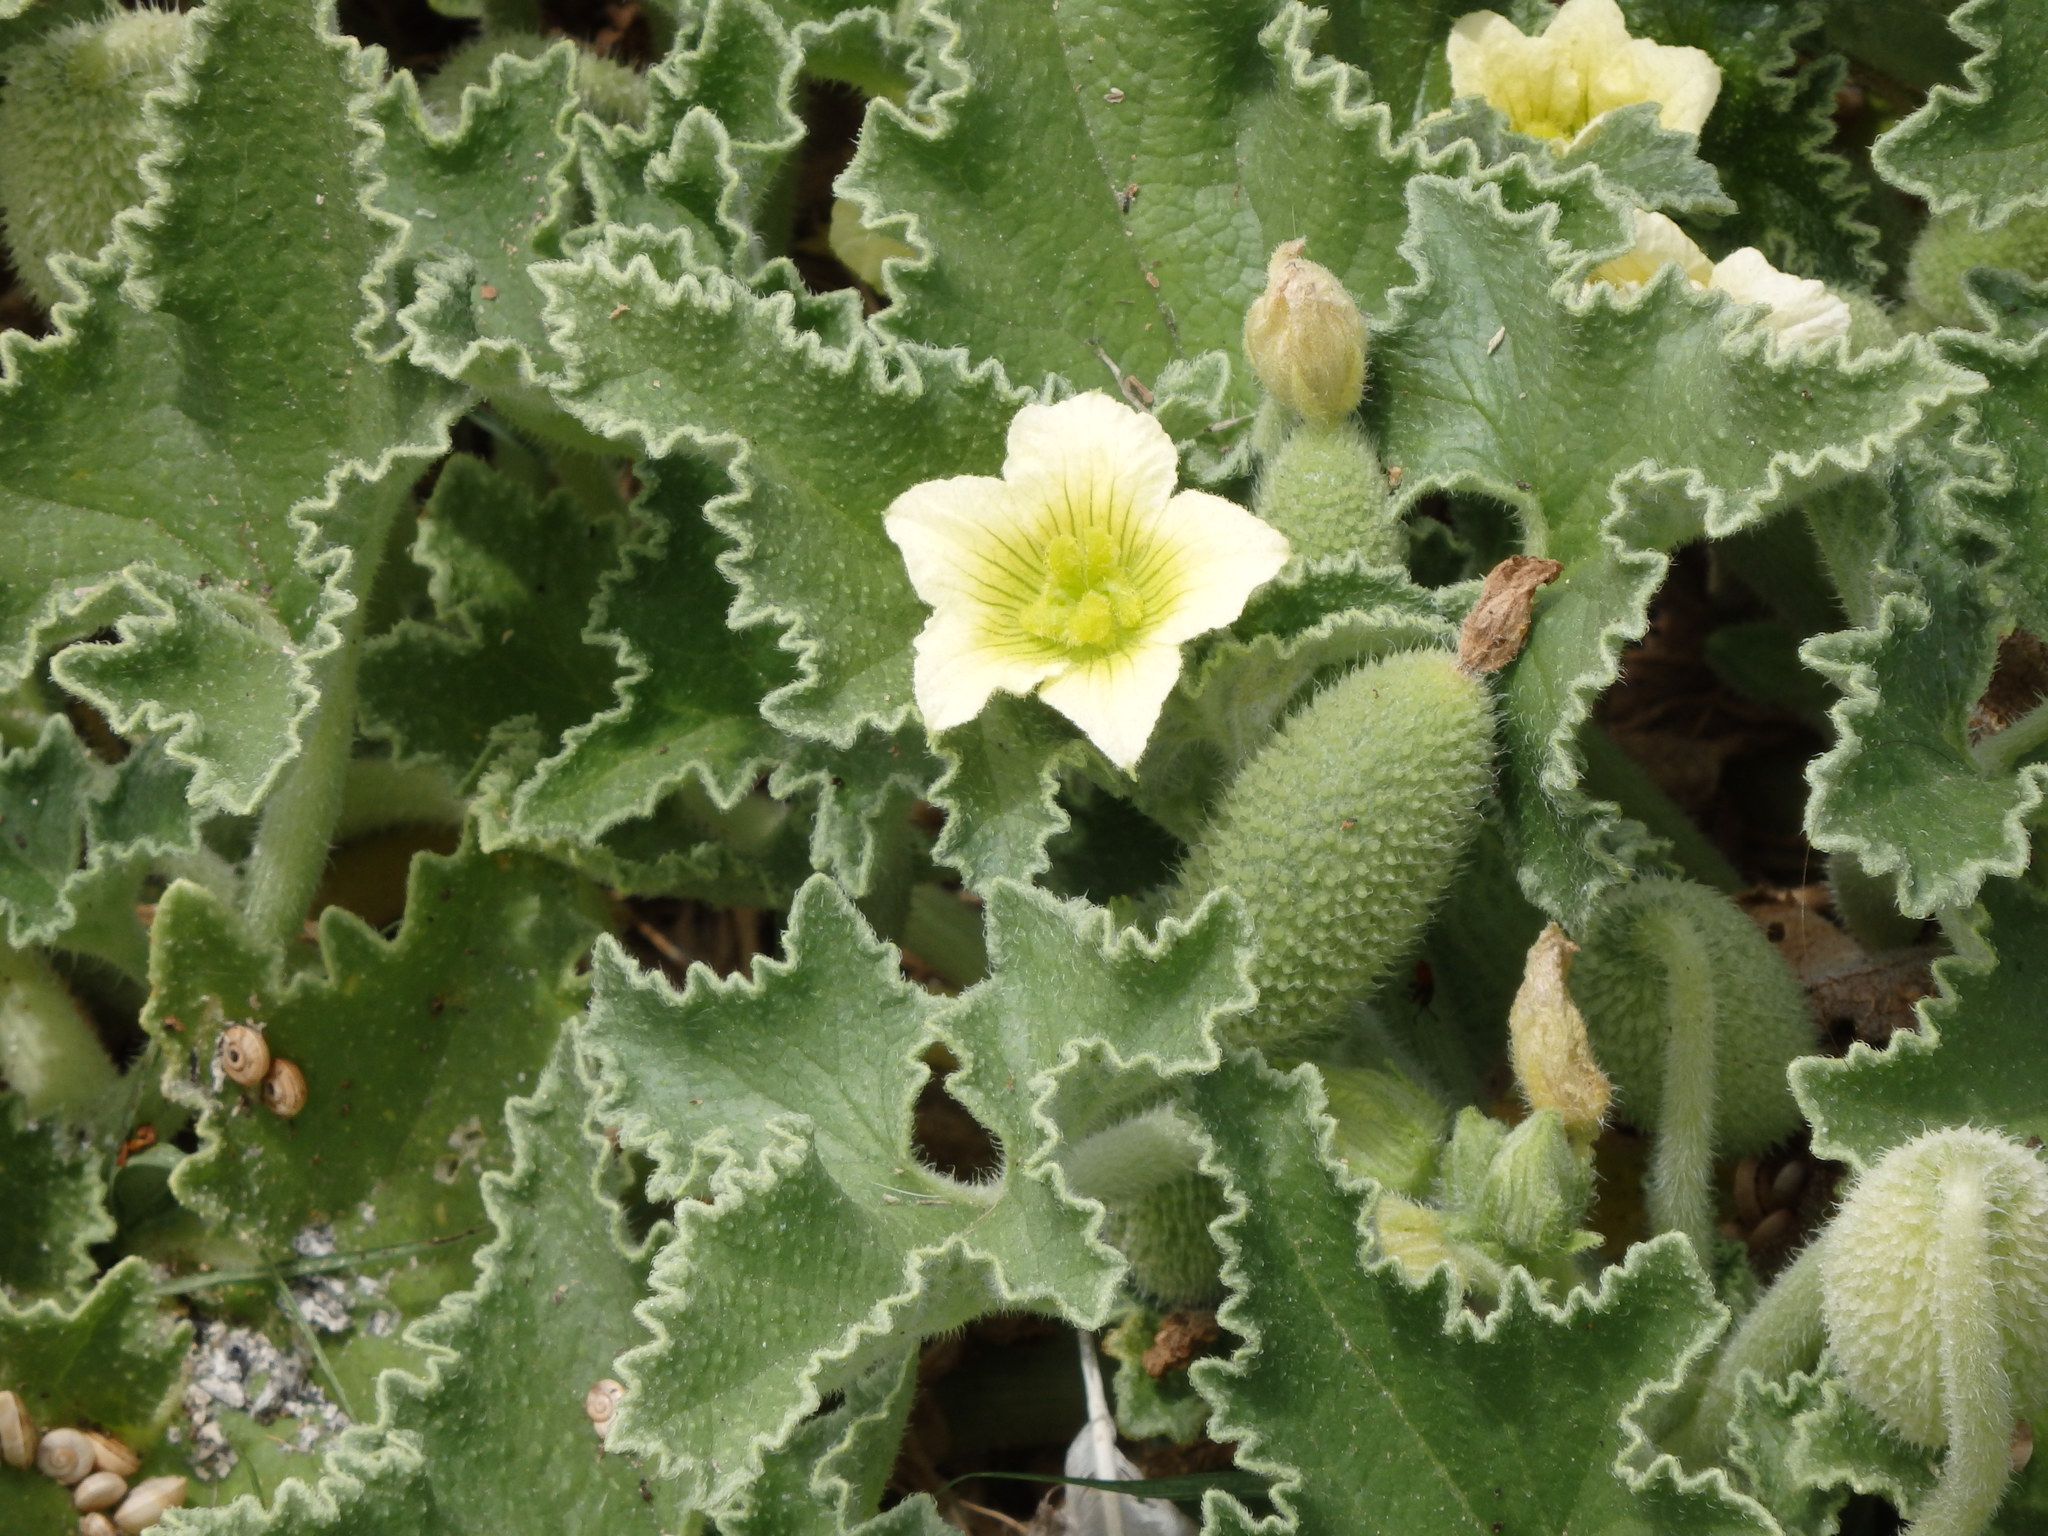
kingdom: Plantae
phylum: Tracheophyta
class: Magnoliopsida
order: Cucurbitales
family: Cucurbitaceae
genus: Ecballium
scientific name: Ecballium elaterium
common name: Squirting cucumber
